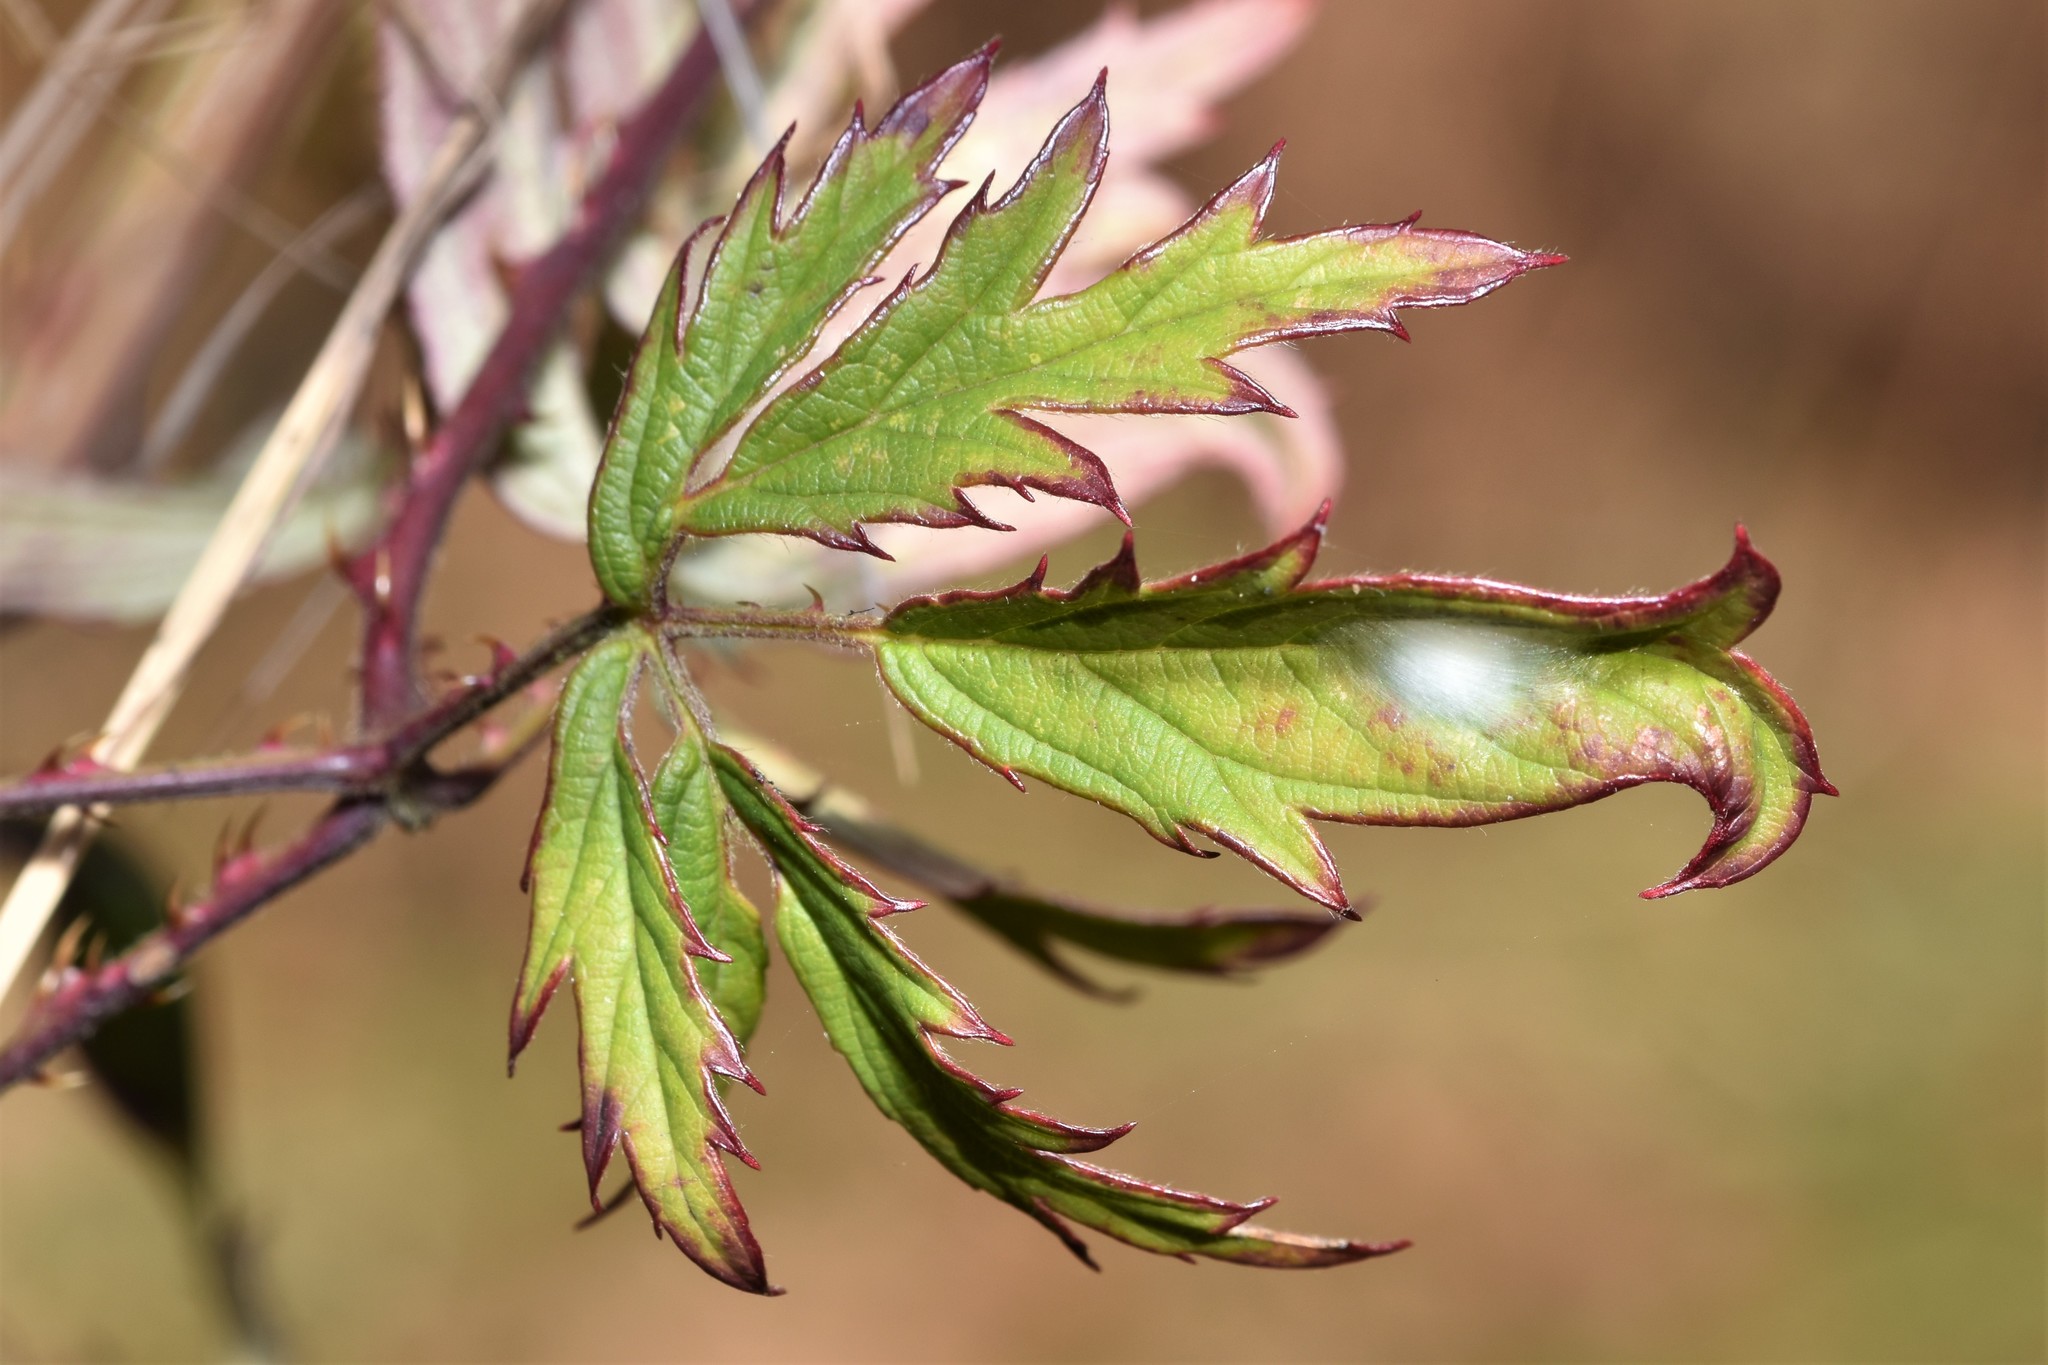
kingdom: Plantae
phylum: Tracheophyta
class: Magnoliopsida
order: Rosales
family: Rosaceae
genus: Rubus
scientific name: Rubus laciniatus
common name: Evergreen blackberry
